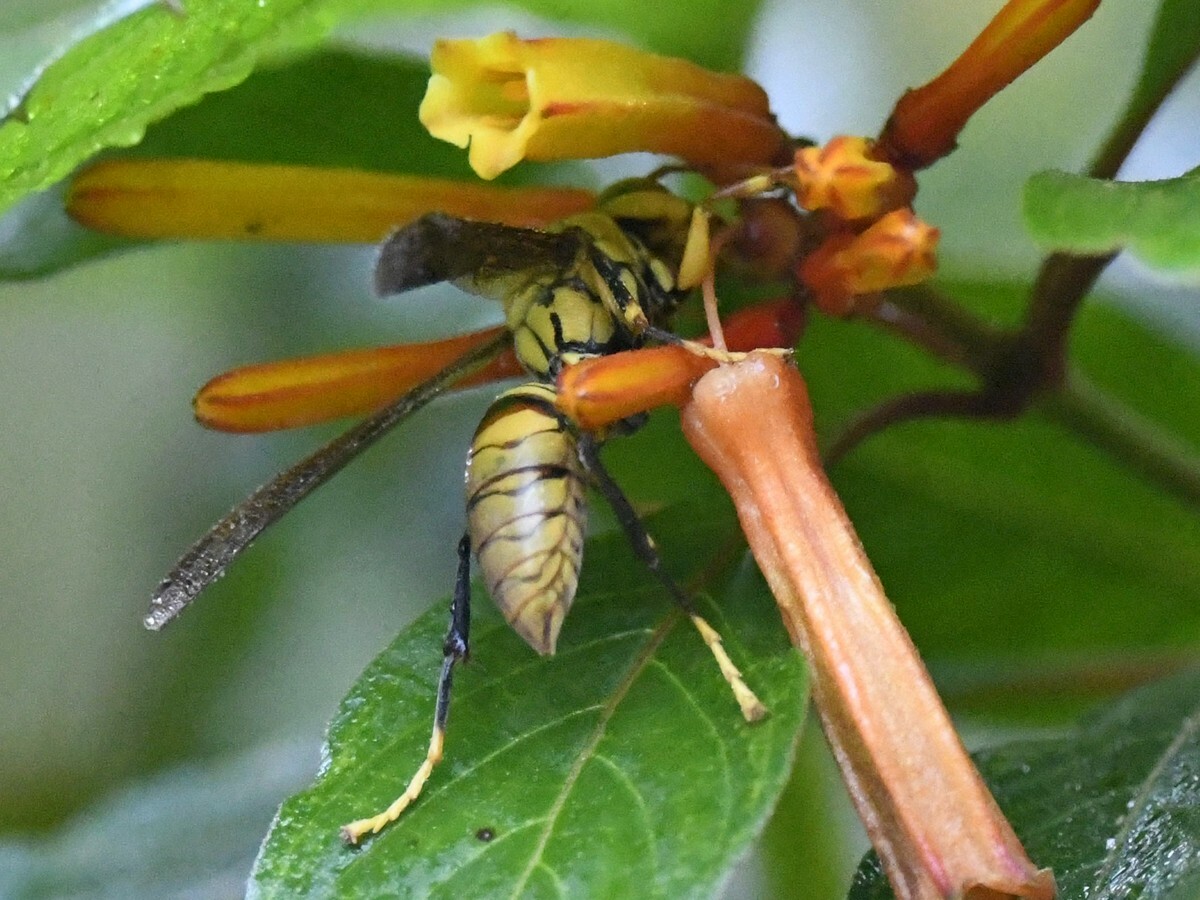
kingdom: Animalia
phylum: Arthropoda
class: Insecta
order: Hymenoptera
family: Eumenidae
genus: Polistes
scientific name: Polistes olivaceus
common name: Paper wasp
